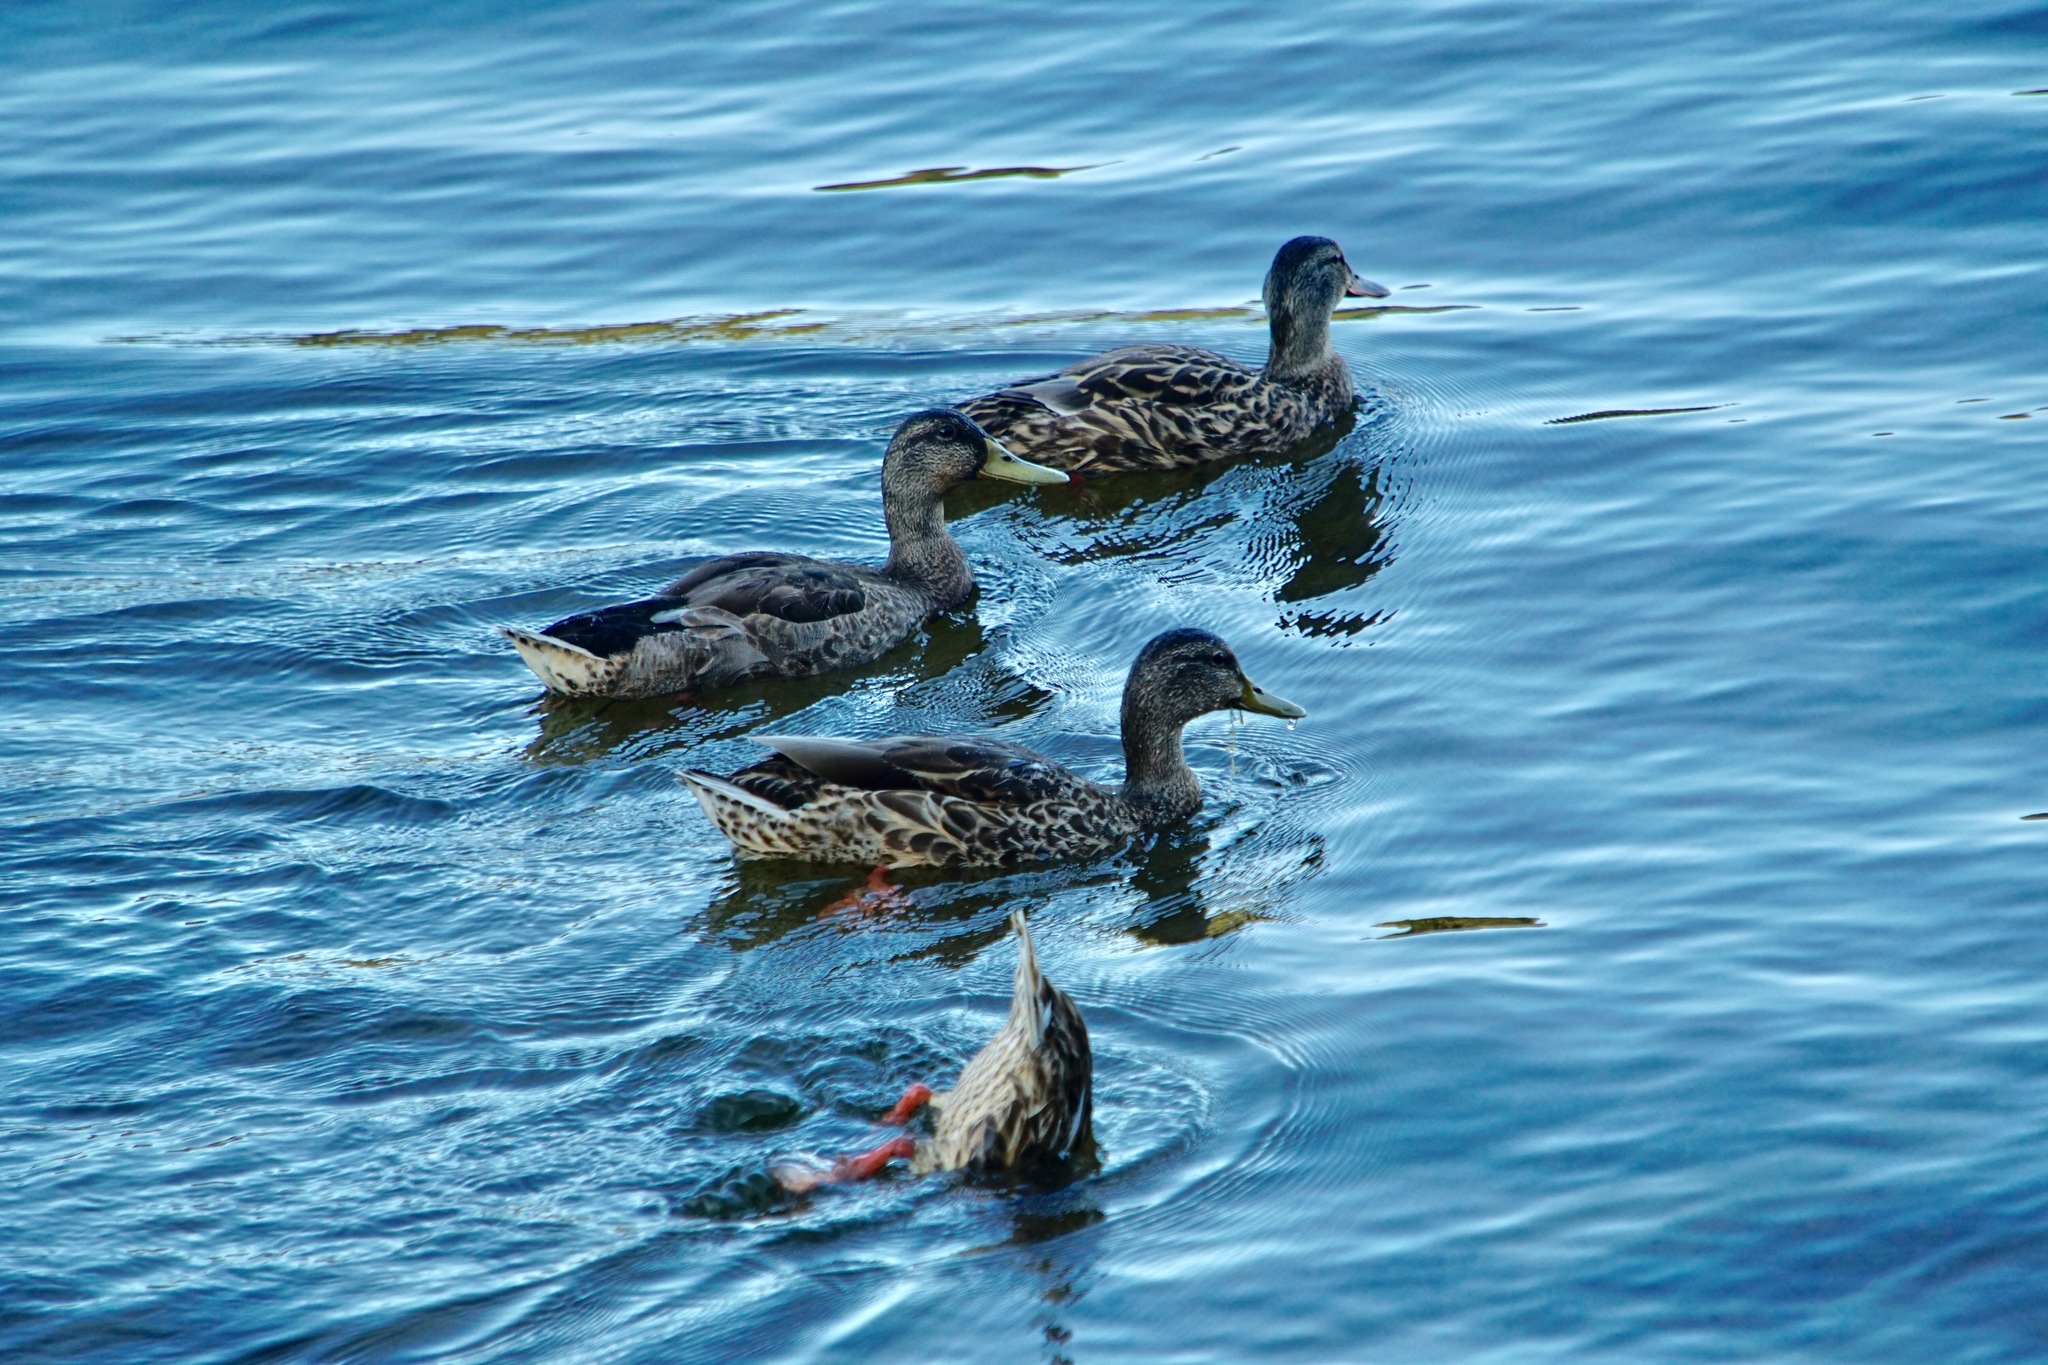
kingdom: Animalia
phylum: Chordata
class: Aves
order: Anseriformes
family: Anatidae
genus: Anas
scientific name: Anas platyrhynchos
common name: Mallard
